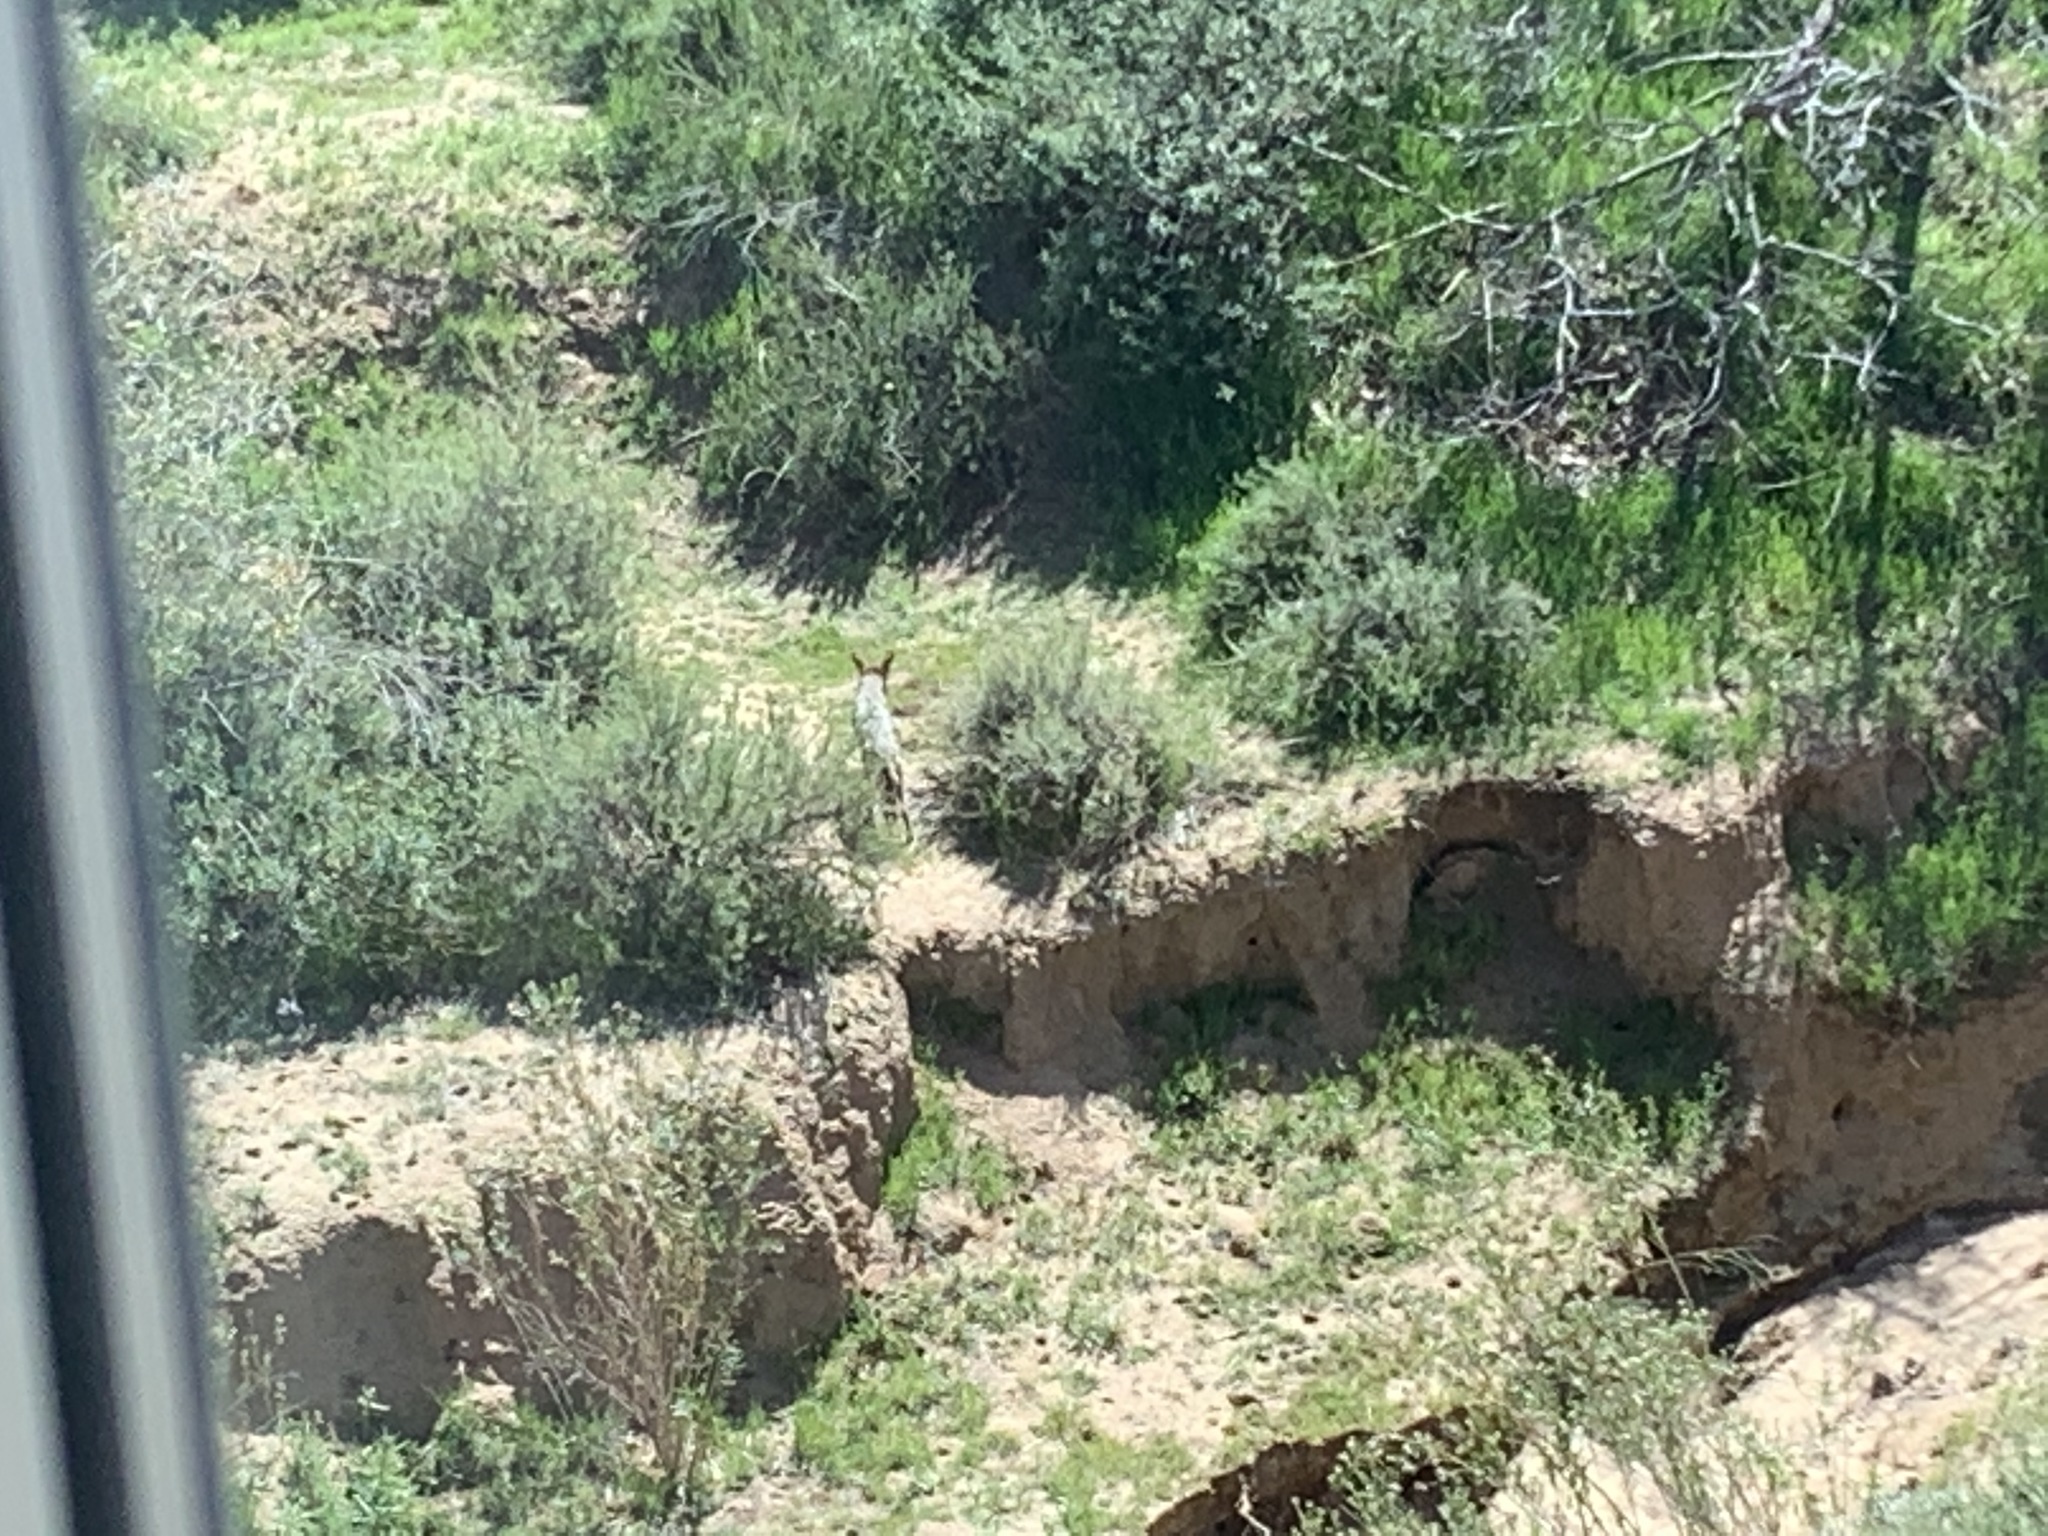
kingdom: Animalia
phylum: Chordata
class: Mammalia
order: Carnivora
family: Canidae
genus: Canis
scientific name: Canis latrans
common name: Coyote
